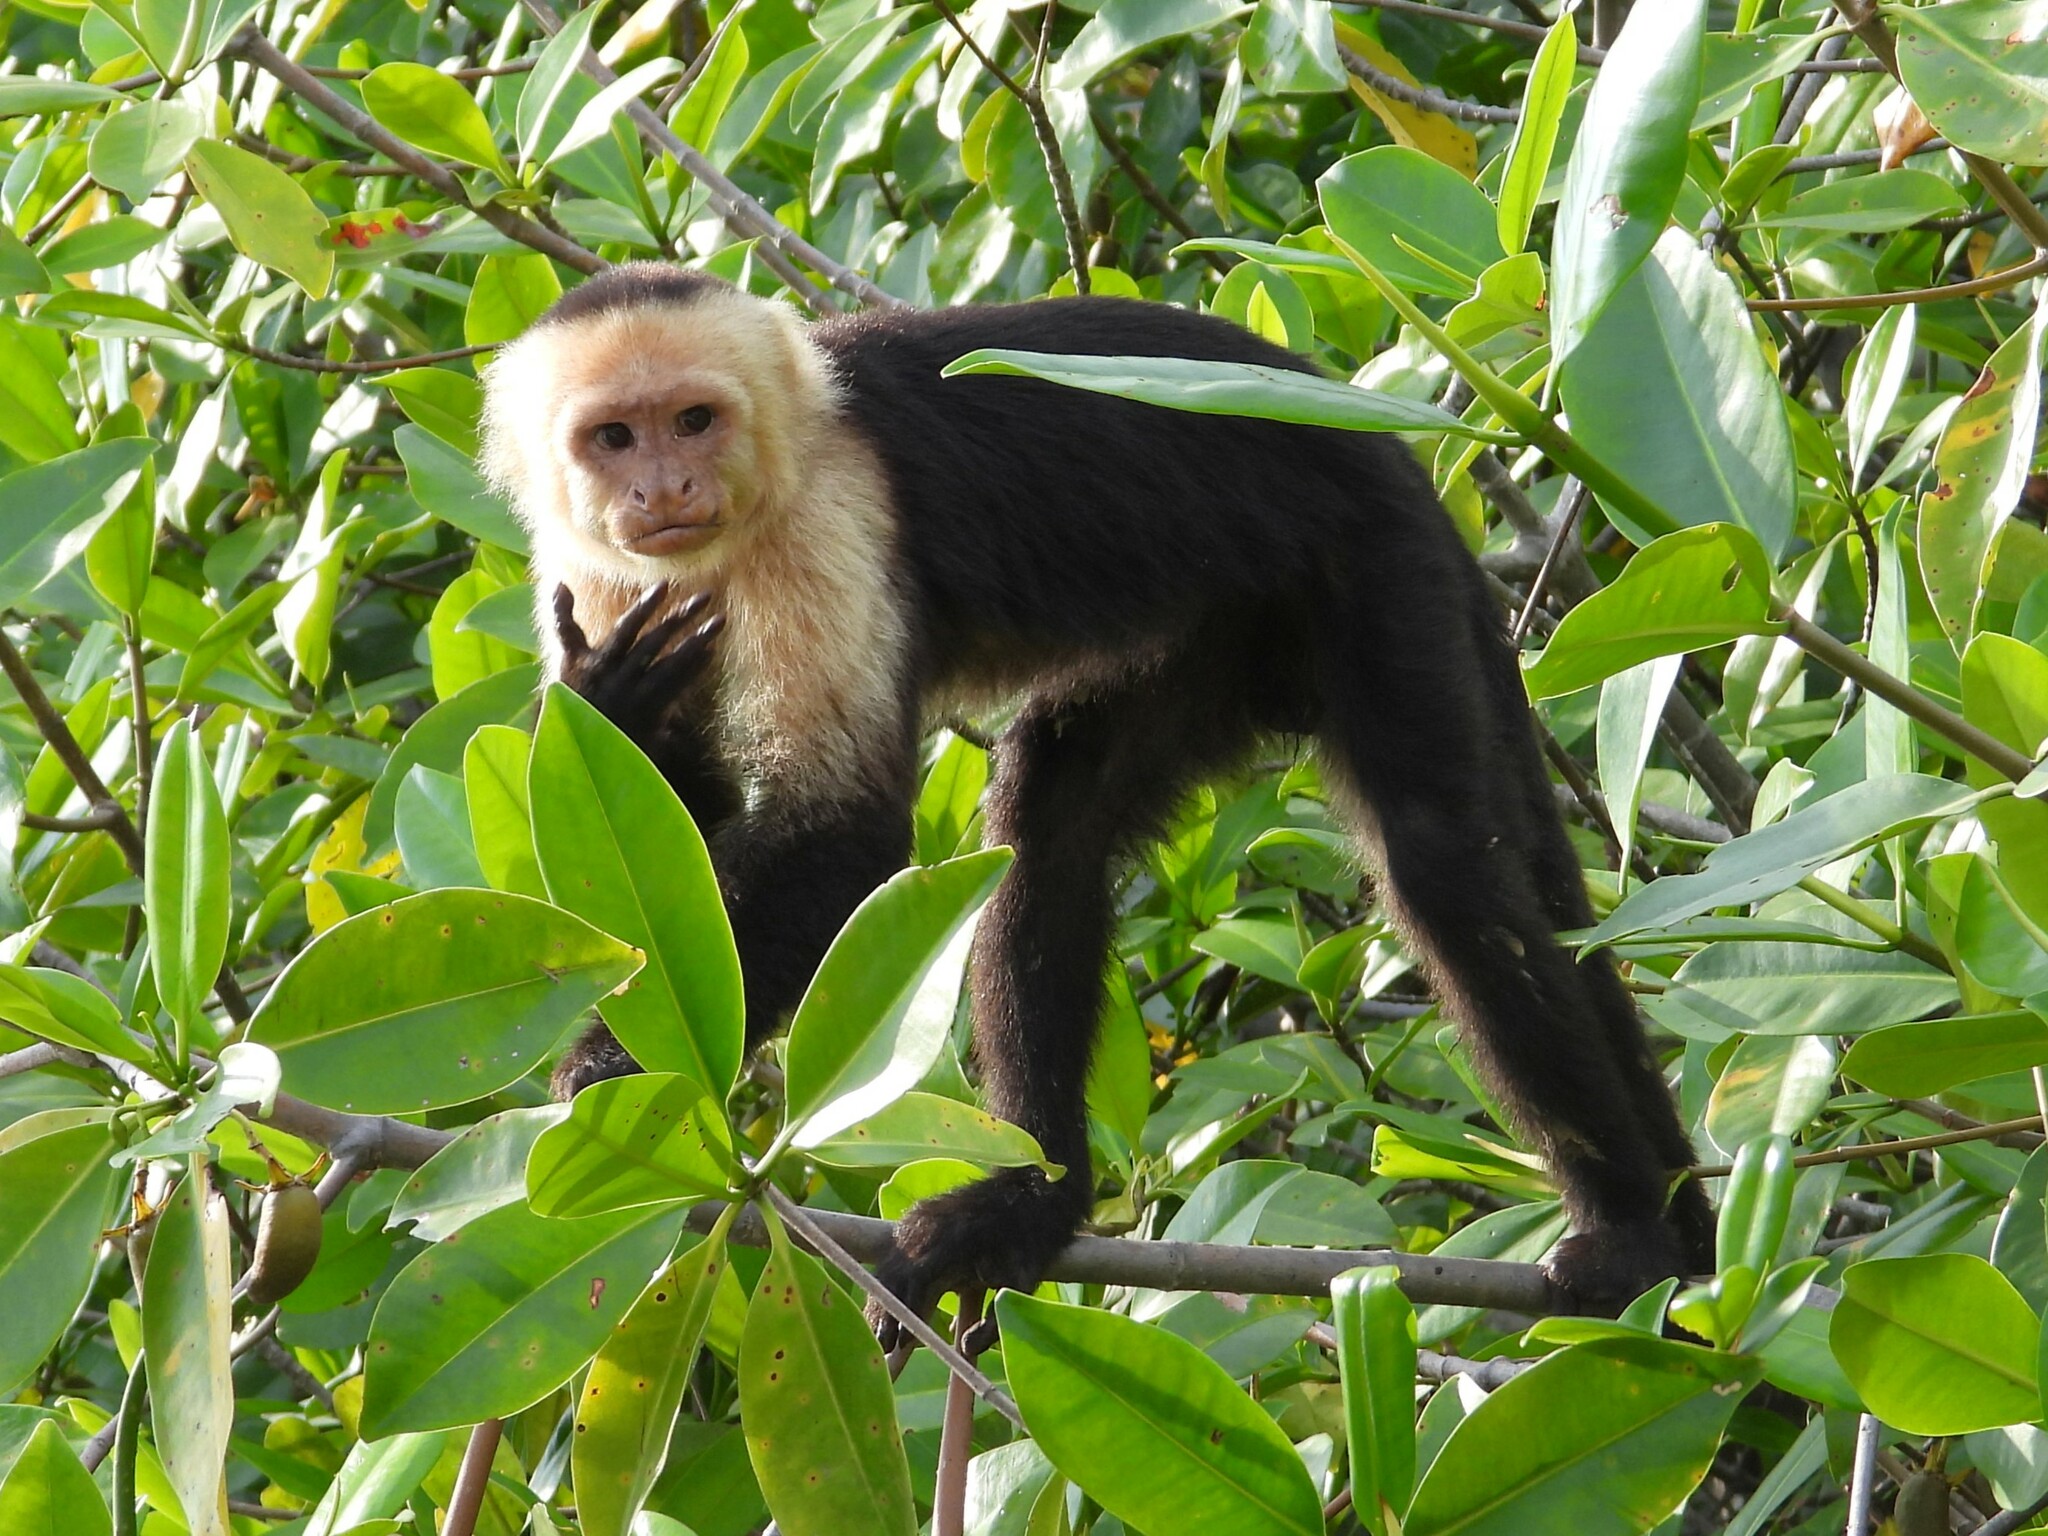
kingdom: Animalia
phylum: Chordata
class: Mammalia
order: Primates
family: Cebidae
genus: Cebus
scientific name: Cebus imitator
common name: Panamanian white-faced capuchin
